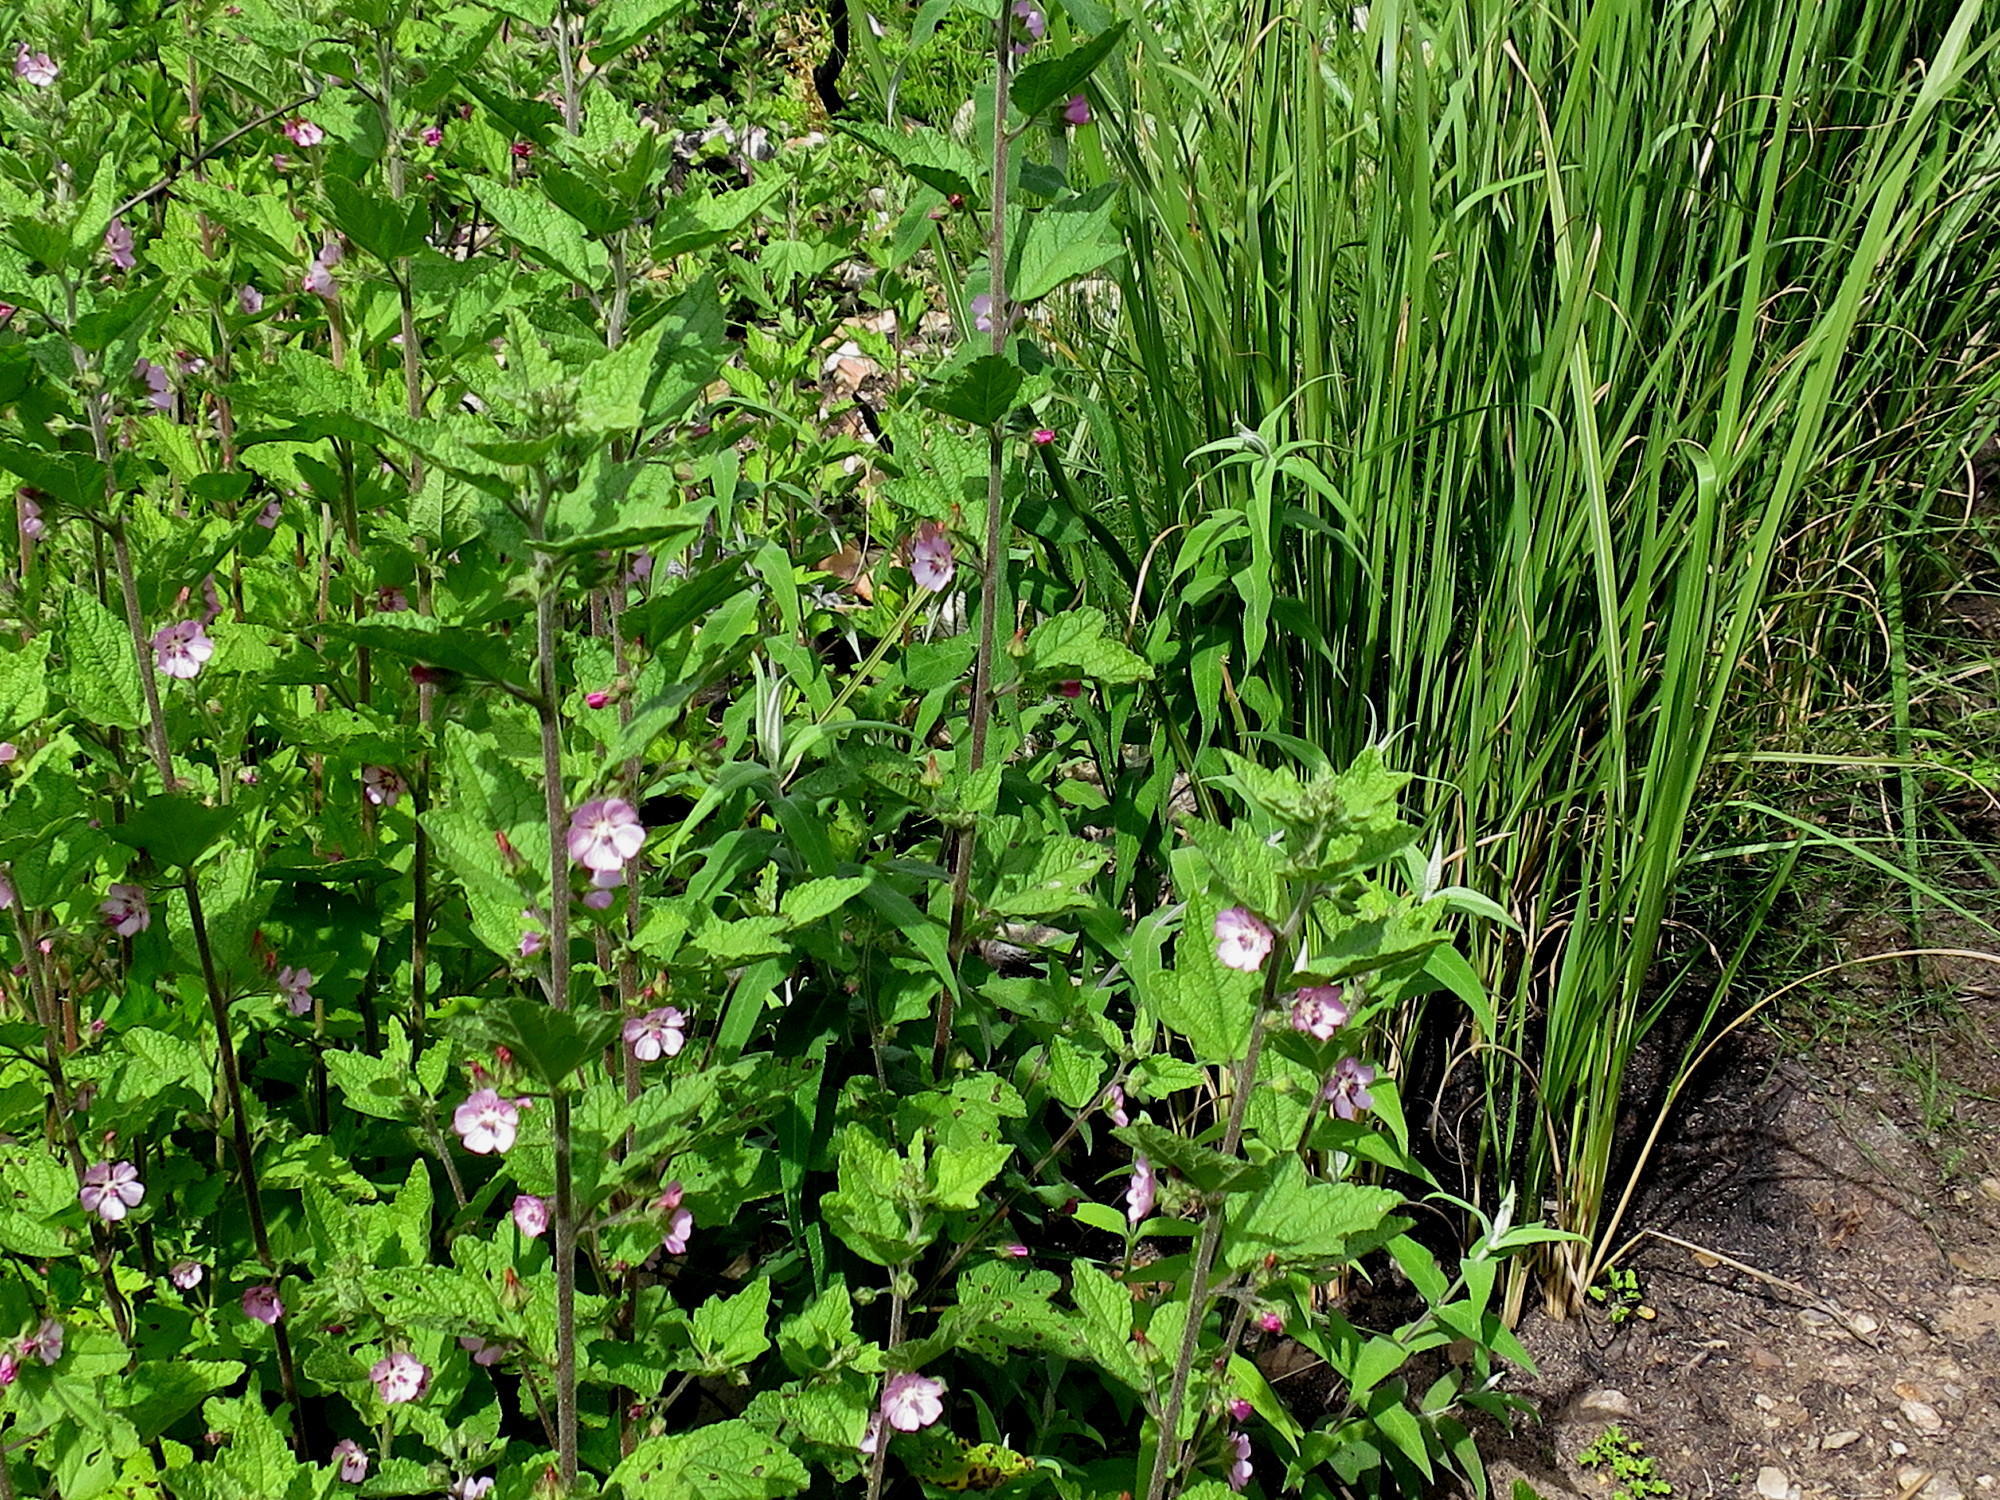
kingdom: Plantae
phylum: Tracheophyta
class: Magnoliopsida
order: Malvales
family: Malvaceae
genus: Anisodontea
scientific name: Anisodontea scabrosa
